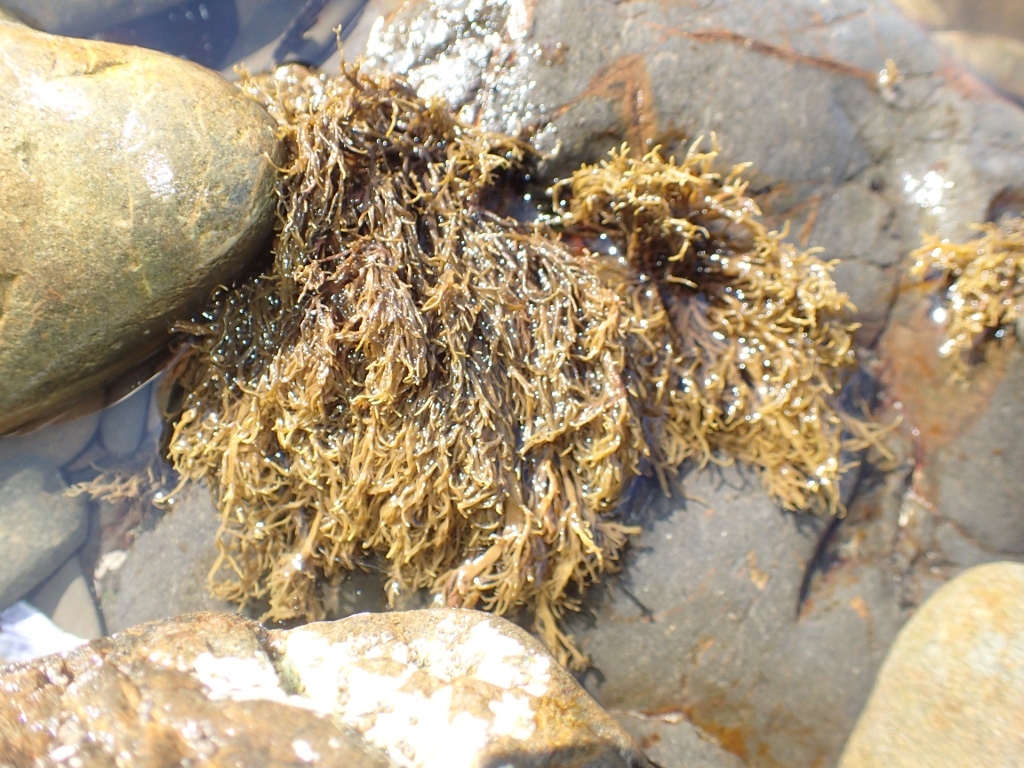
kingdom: Chromista
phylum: Ochrophyta
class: Phaeophyceae
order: Scytothamnales
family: Scytothamnaceae
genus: Scytothamnus
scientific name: Scytothamnus australis
